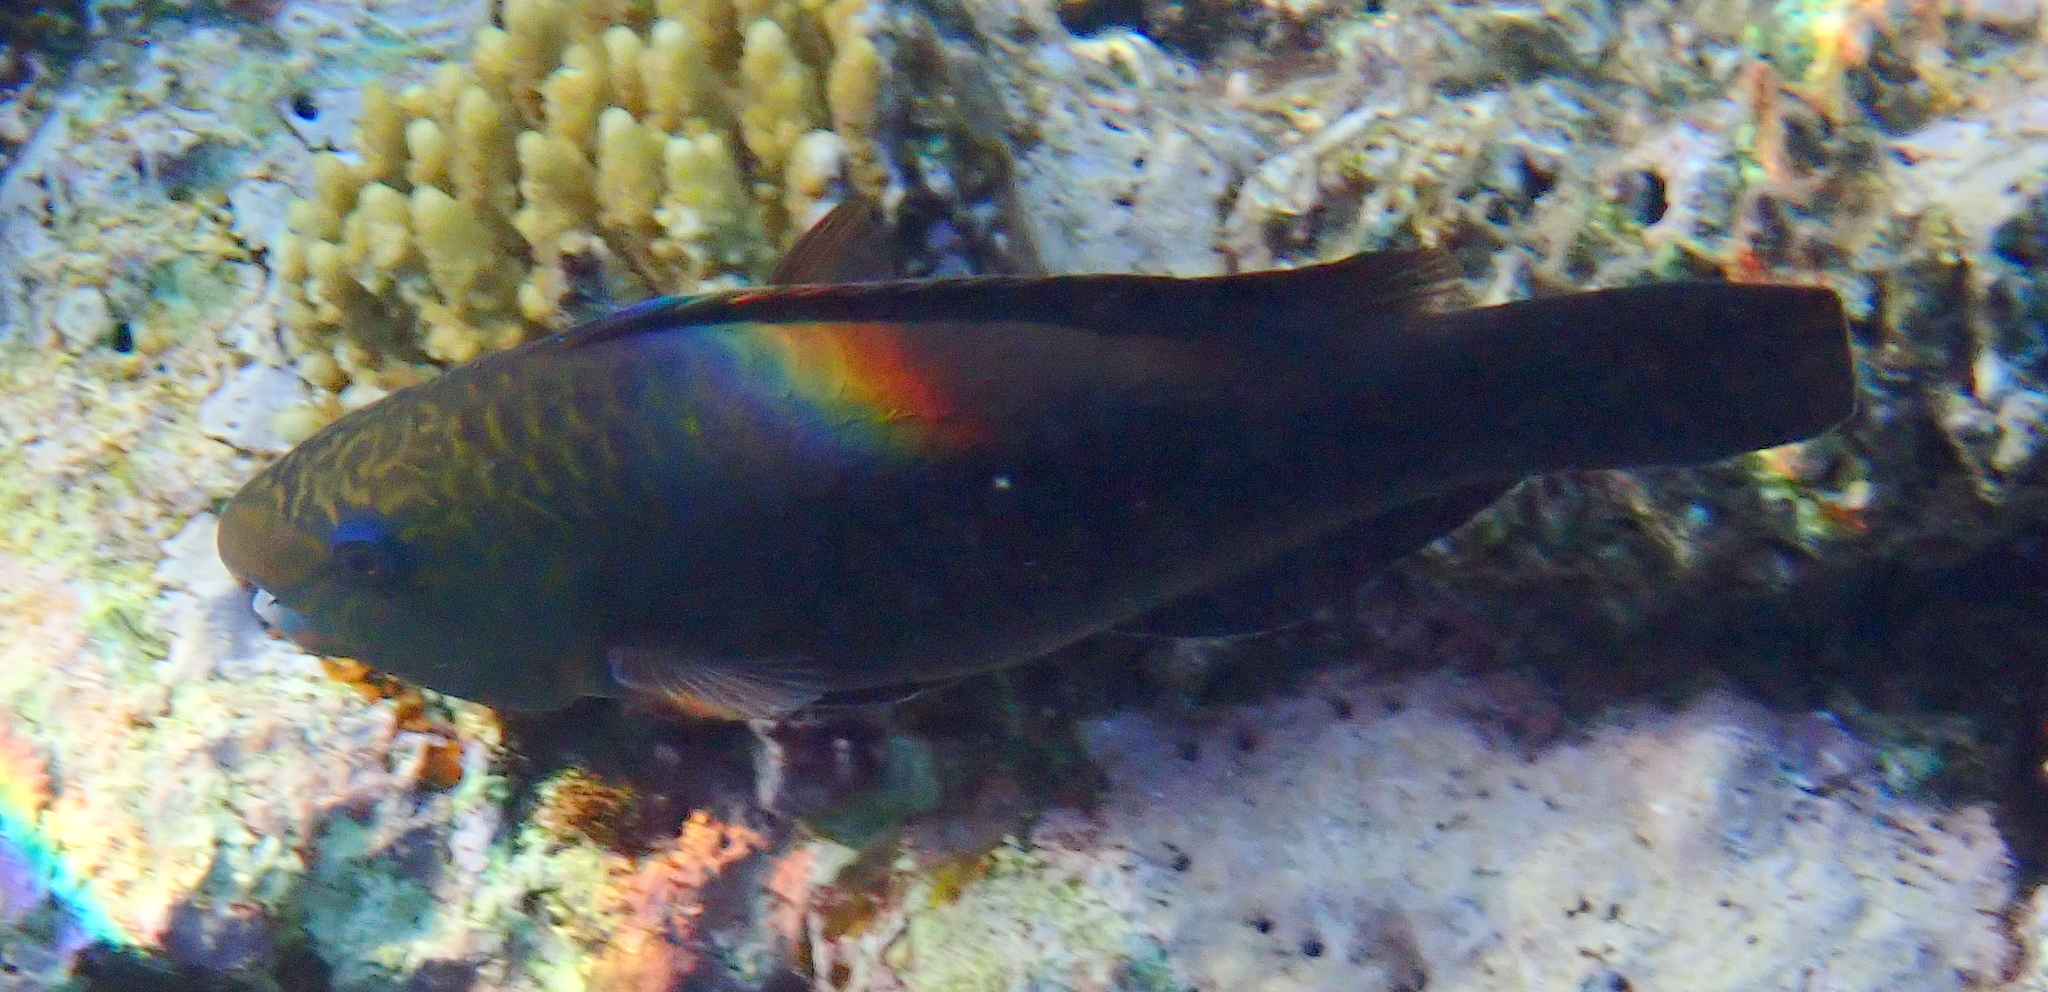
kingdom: Animalia
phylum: Chordata
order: Perciformes
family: Scaridae
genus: Chlorurus
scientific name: Chlorurus sordidus
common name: Bullethead parrotfish
